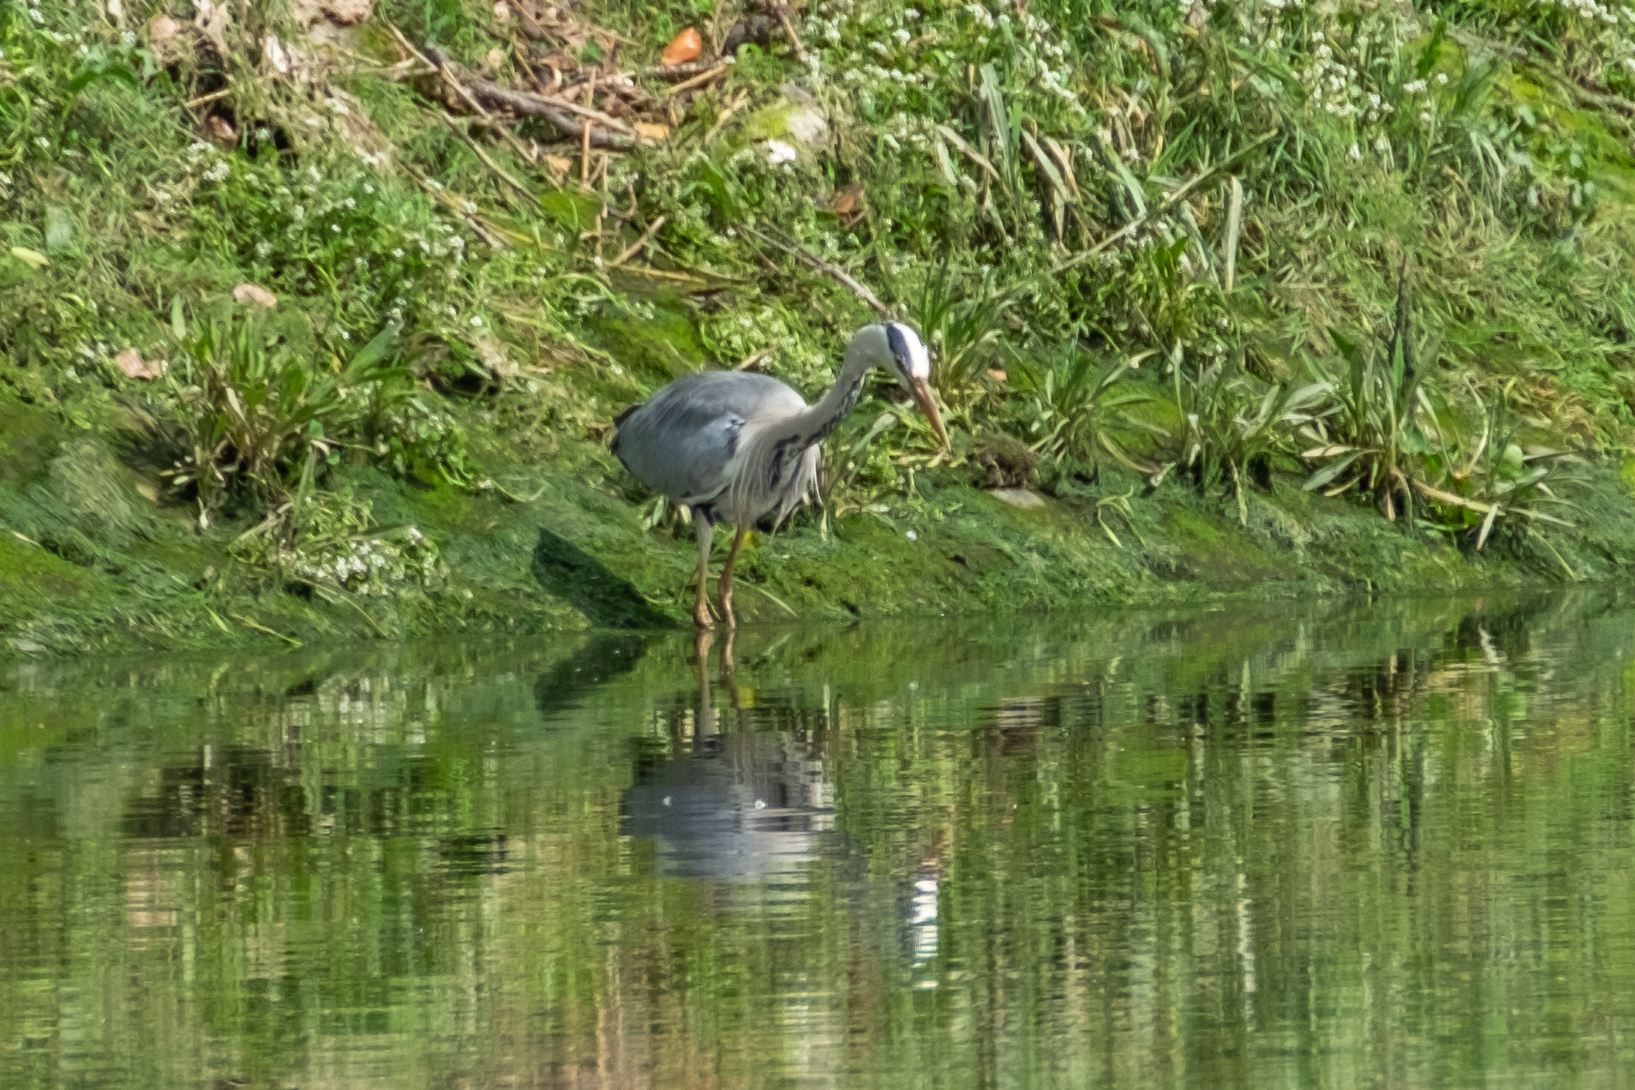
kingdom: Animalia
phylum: Chordata
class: Aves
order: Pelecaniformes
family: Ardeidae
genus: Ardea
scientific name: Ardea cinerea
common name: Grey heron
